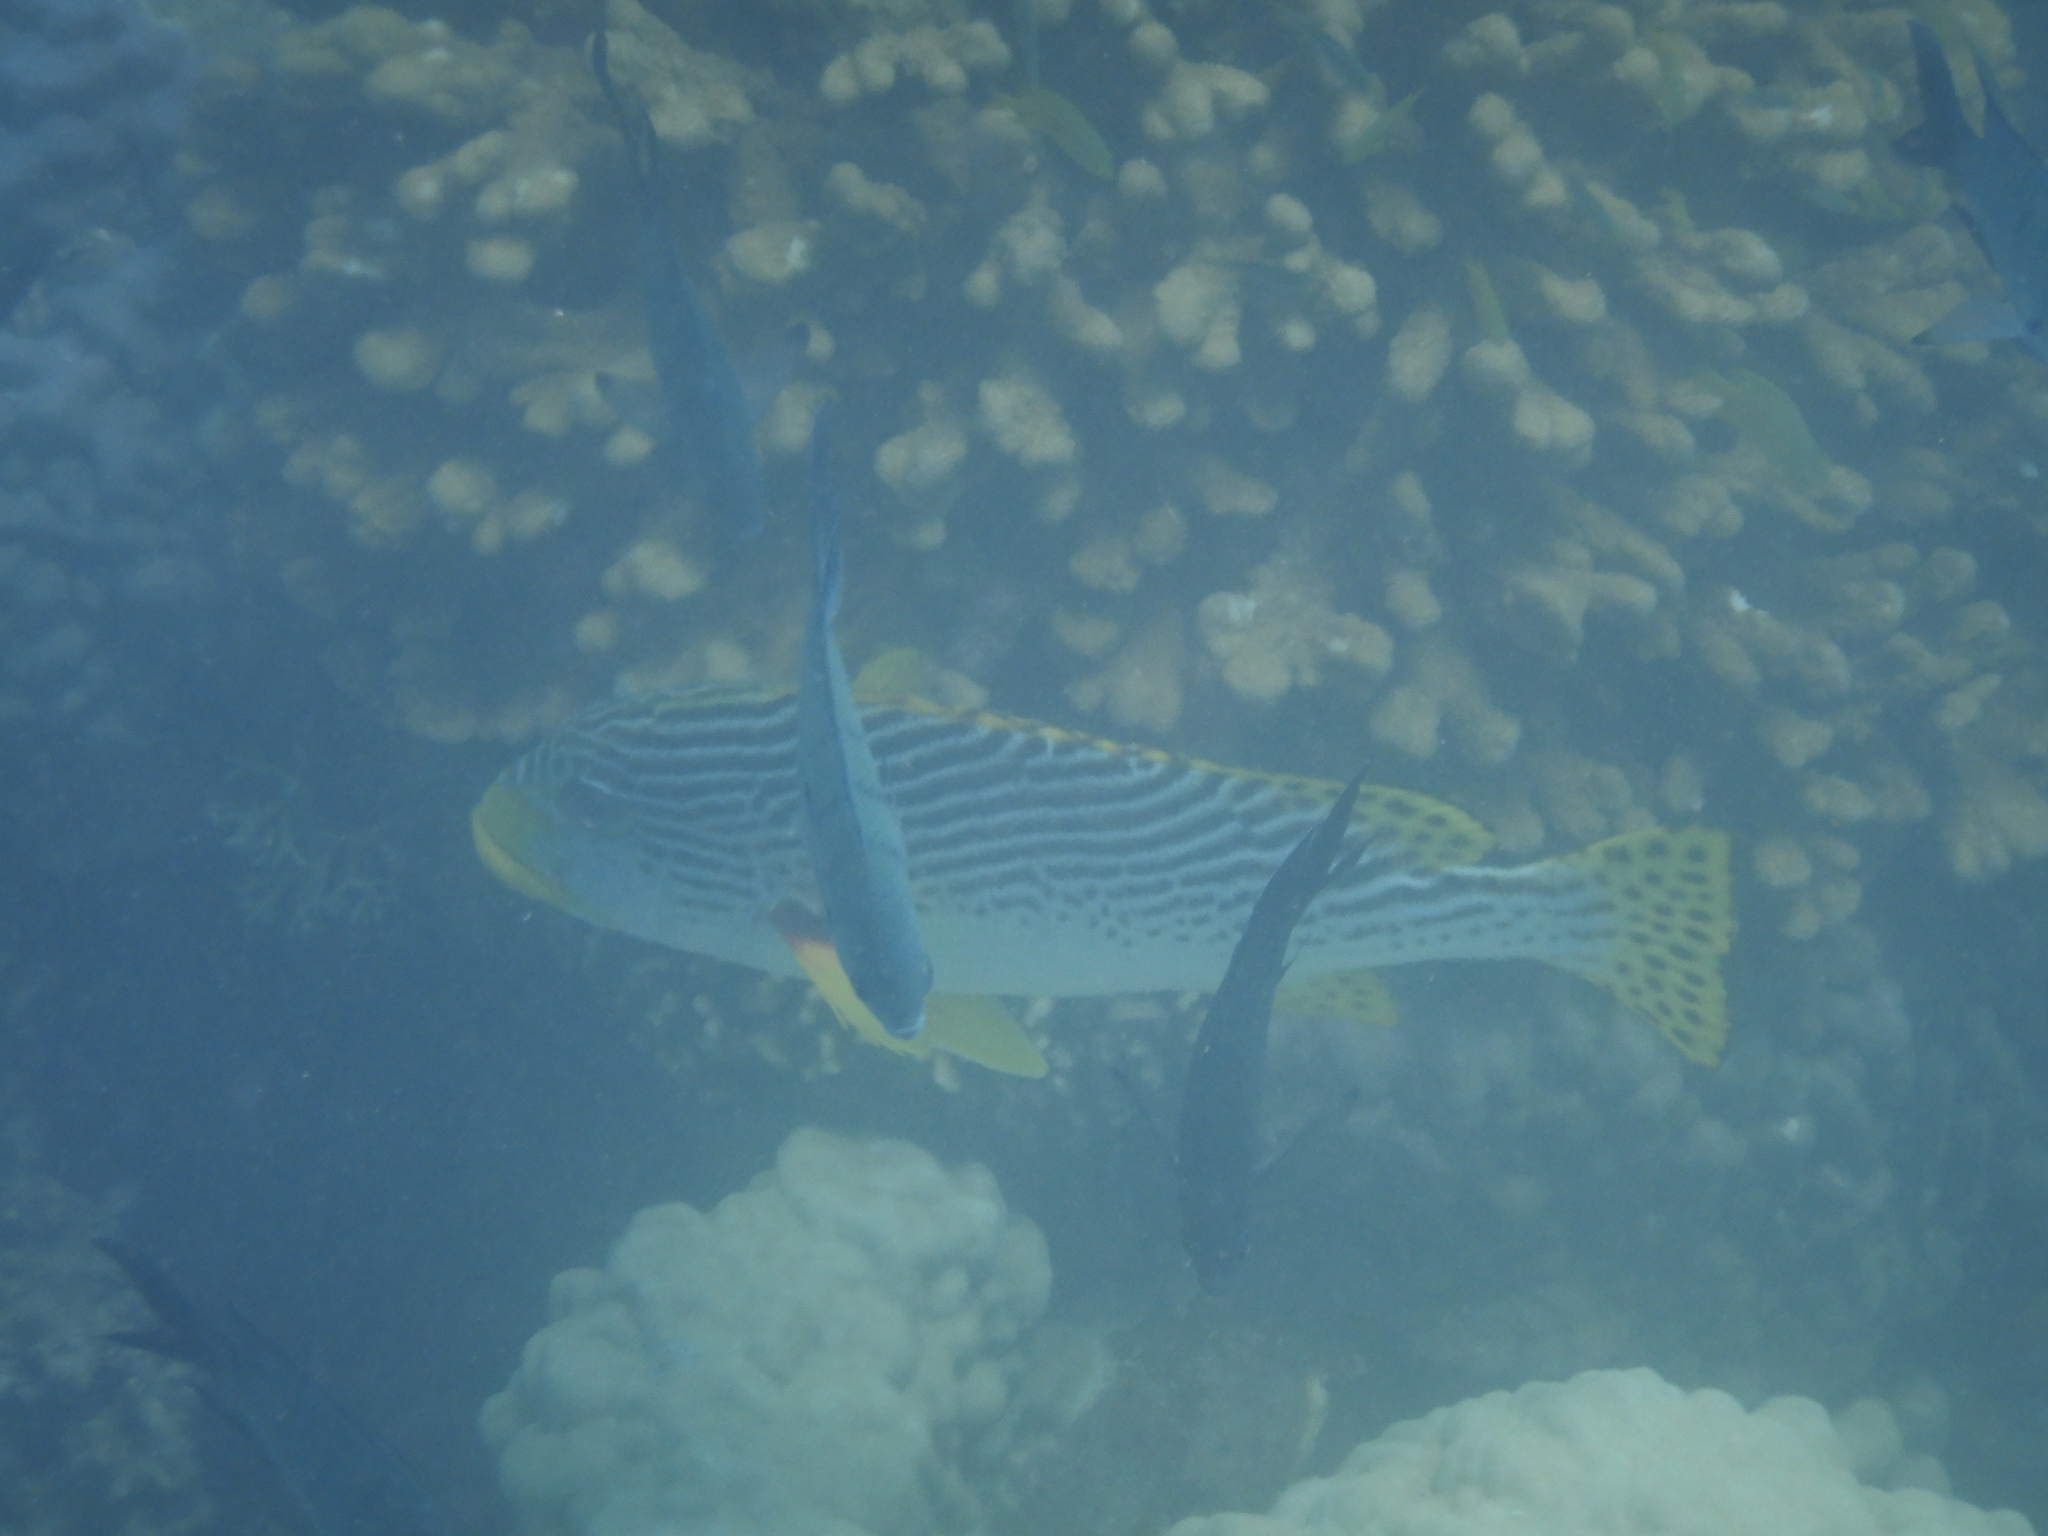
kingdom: Animalia
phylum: Chordata
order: Perciformes
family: Haemulidae
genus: Plectorhinchus
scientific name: Plectorhinchus lineatus
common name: Goldman's sweetlips
